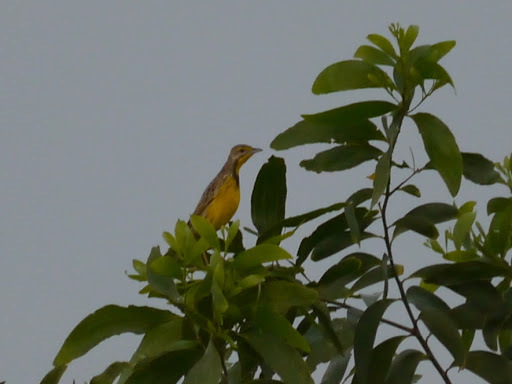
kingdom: Animalia
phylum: Chordata
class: Aves
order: Passeriformes
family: Motacillidae
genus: Macronyx
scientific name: Macronyx croceus
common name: Yellow-throated longclaw
